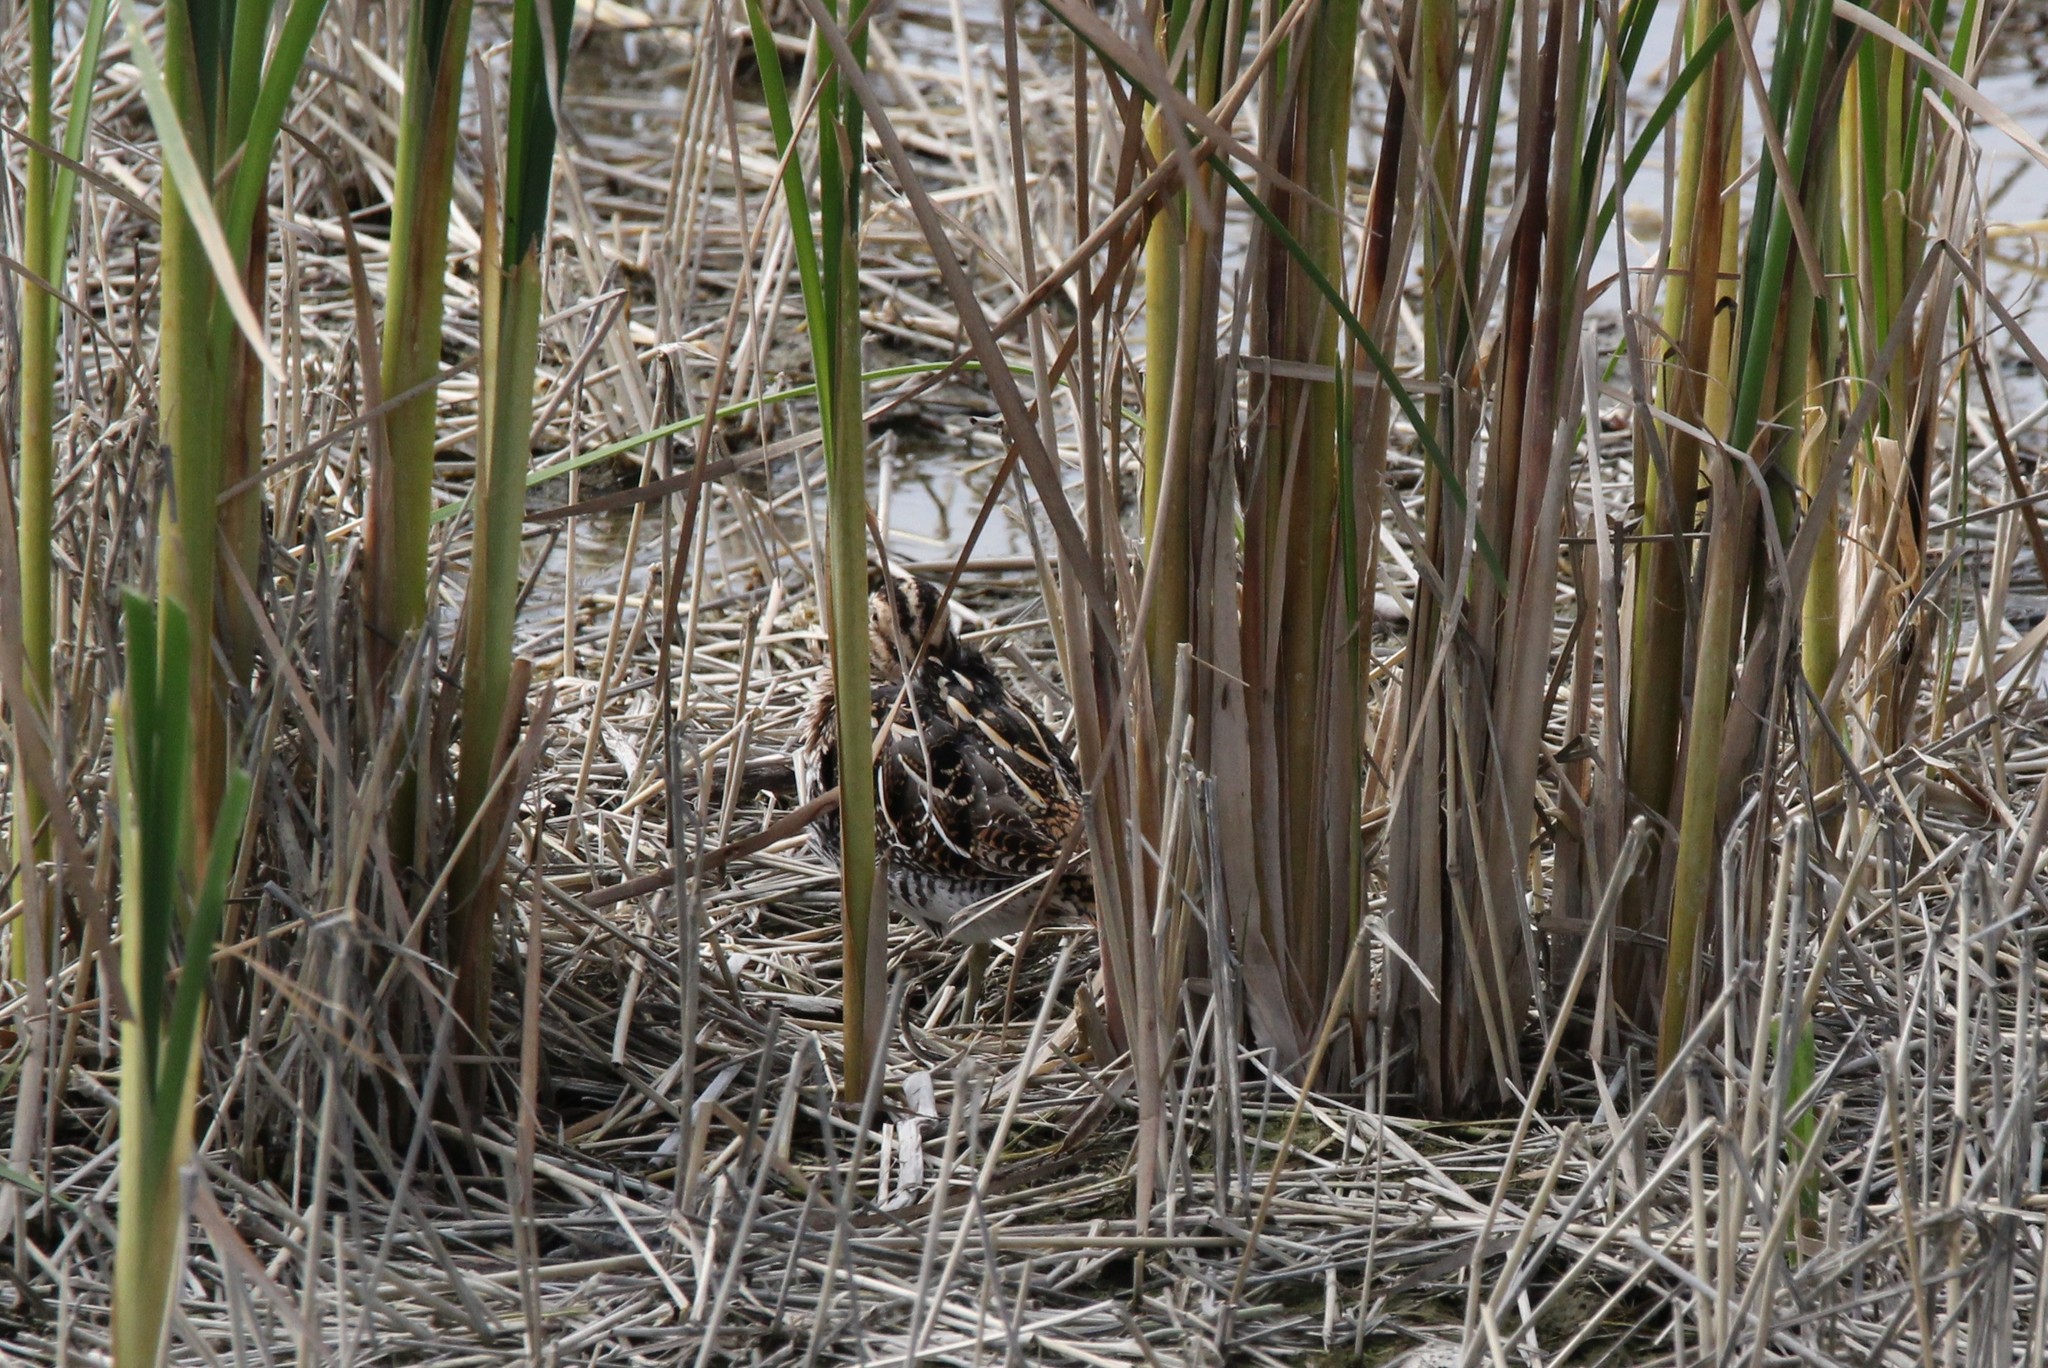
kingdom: Animalia
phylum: Chordata
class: Aves
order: Charadriiformes
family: Scolopacidae
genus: Gallinago
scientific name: Gallinago delicata
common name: Wilson's snipe
